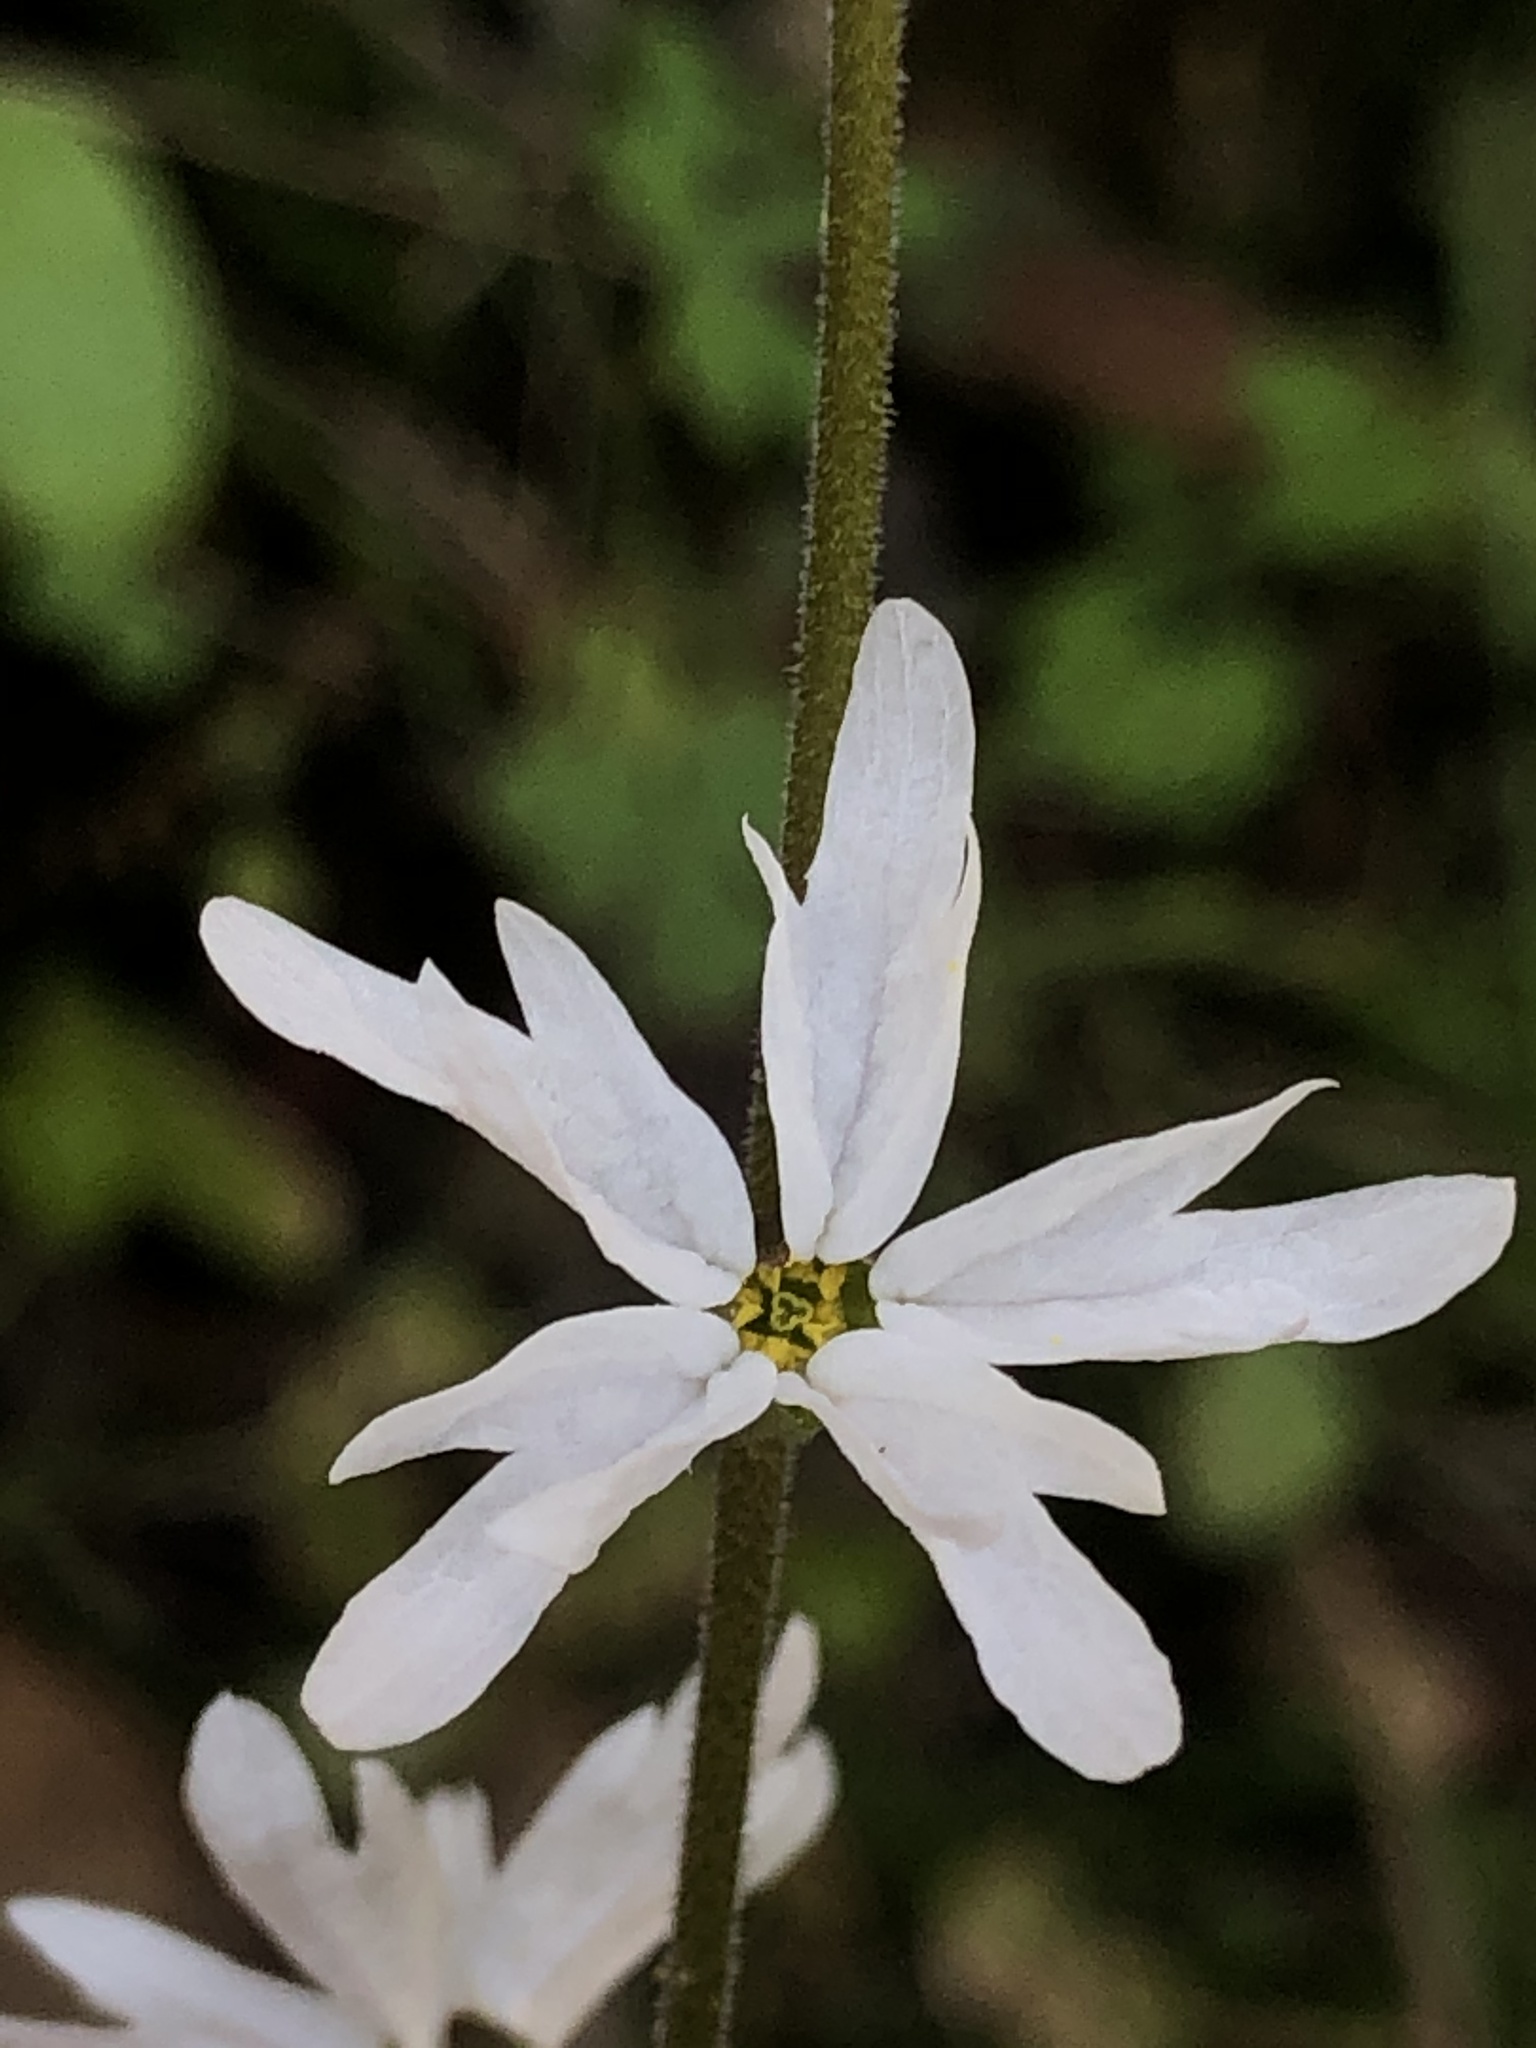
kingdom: Plantae
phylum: Tracheophyta
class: Magnoliopsida
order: Saxifragales
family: Saxifragaceae
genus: Lithophragma
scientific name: Lithophragma heterophyllum
